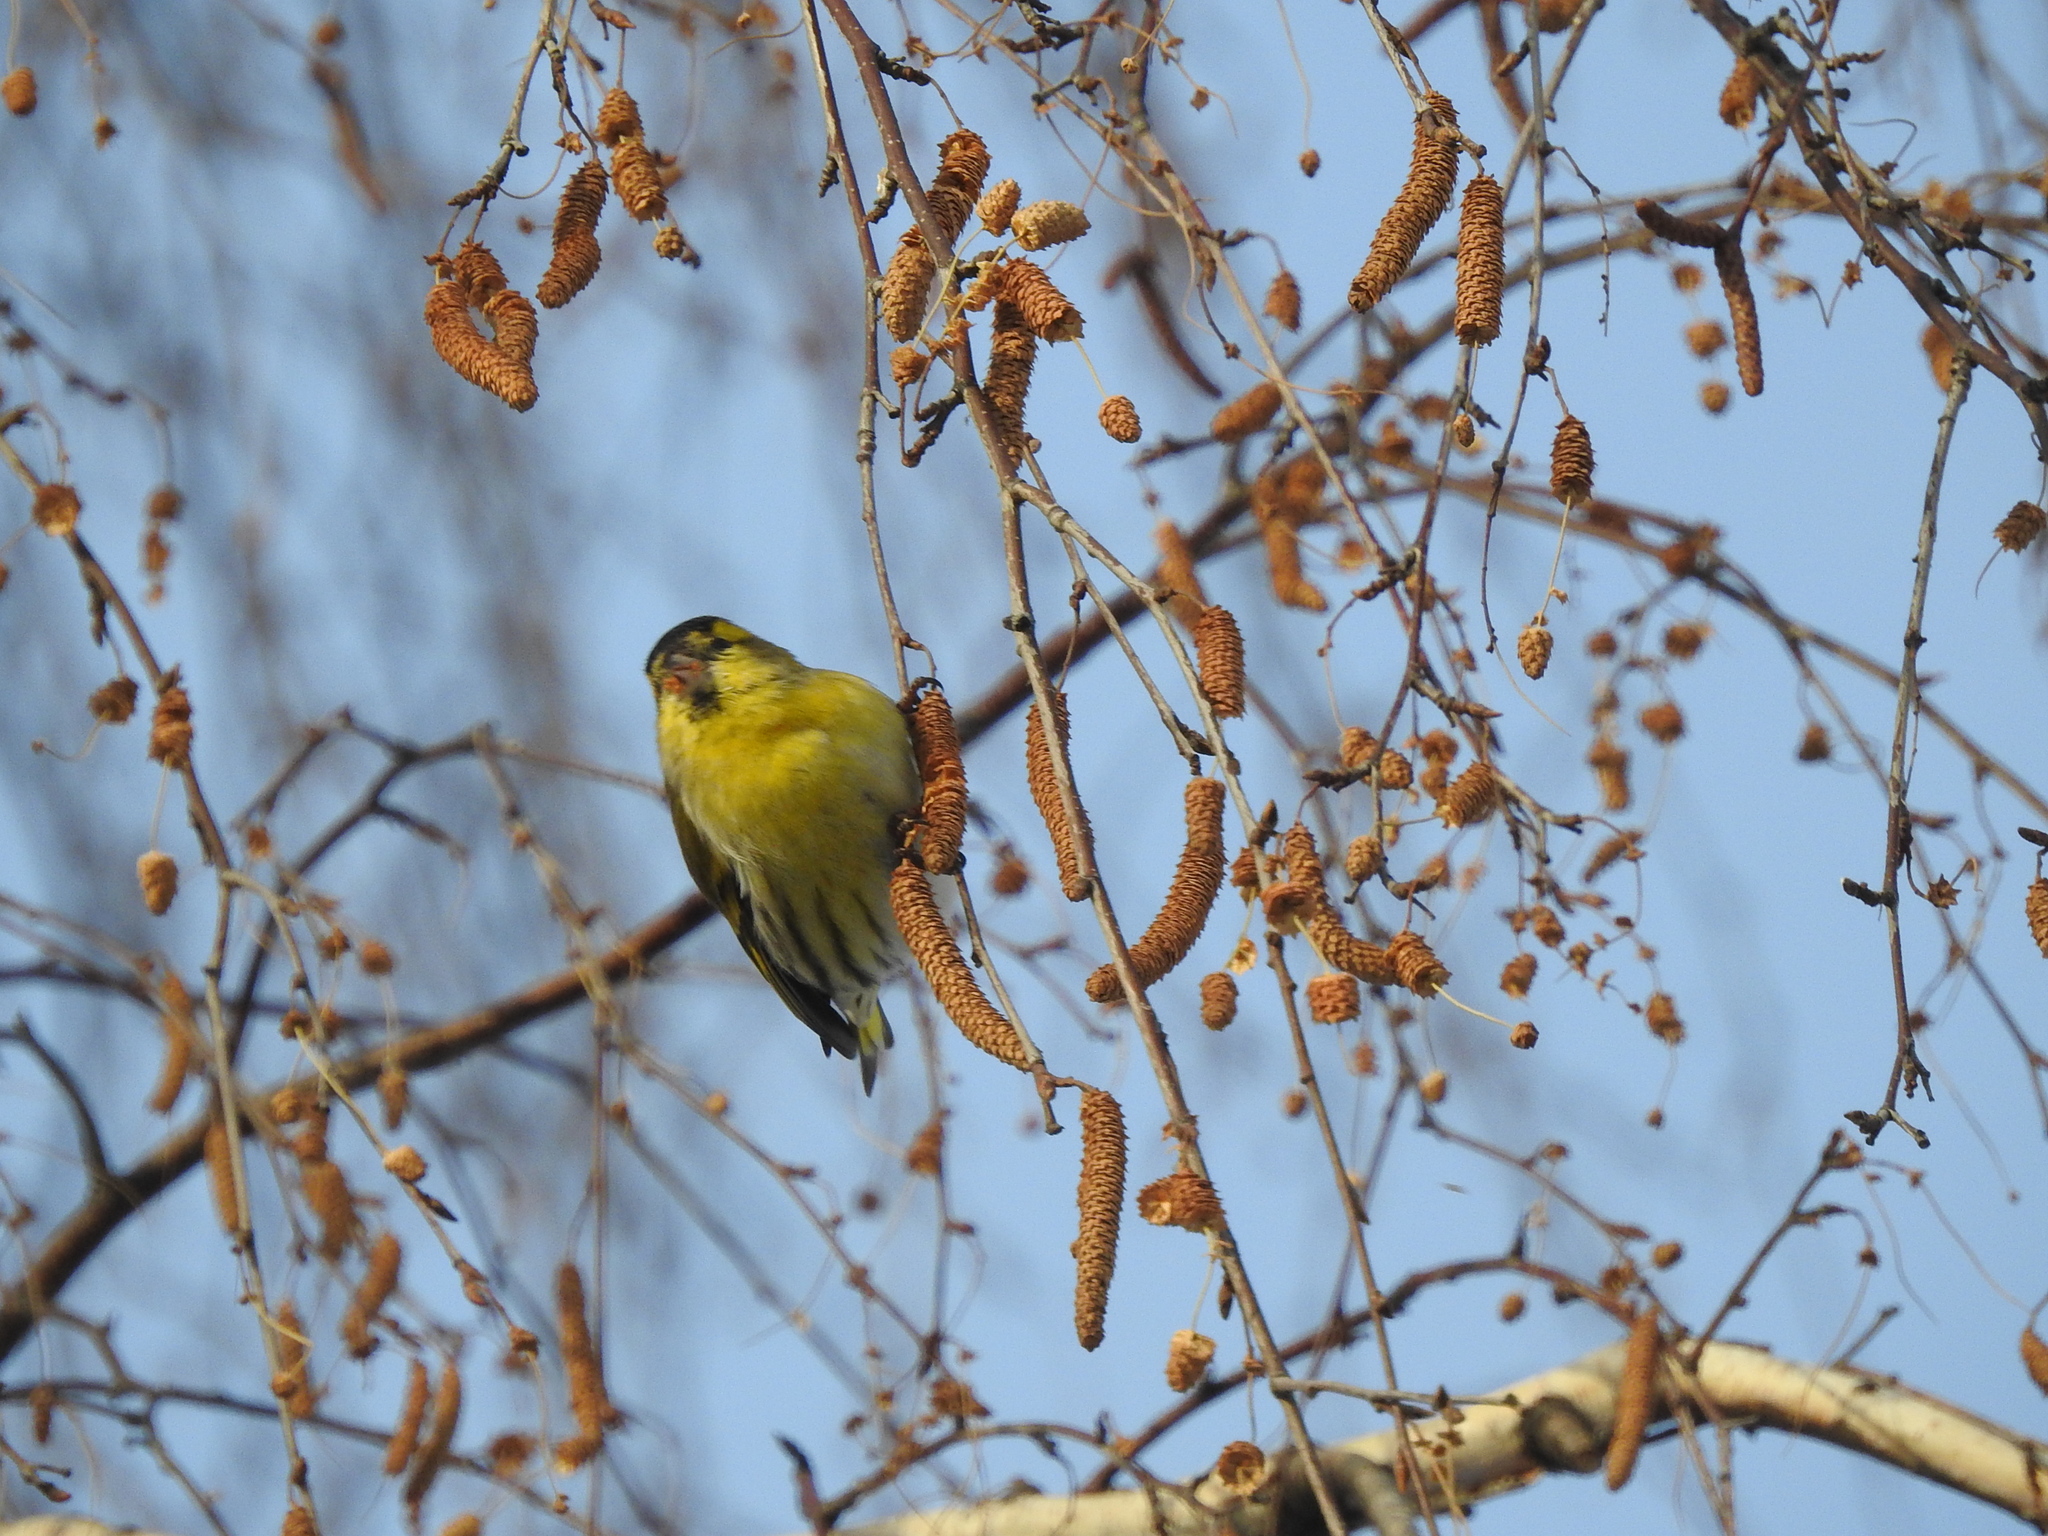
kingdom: Animalia
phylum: Chordata
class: Aves
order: Passeriformes
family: Fringillidae
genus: Spinus
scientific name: Spinus spinus
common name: Eurasian siskin
